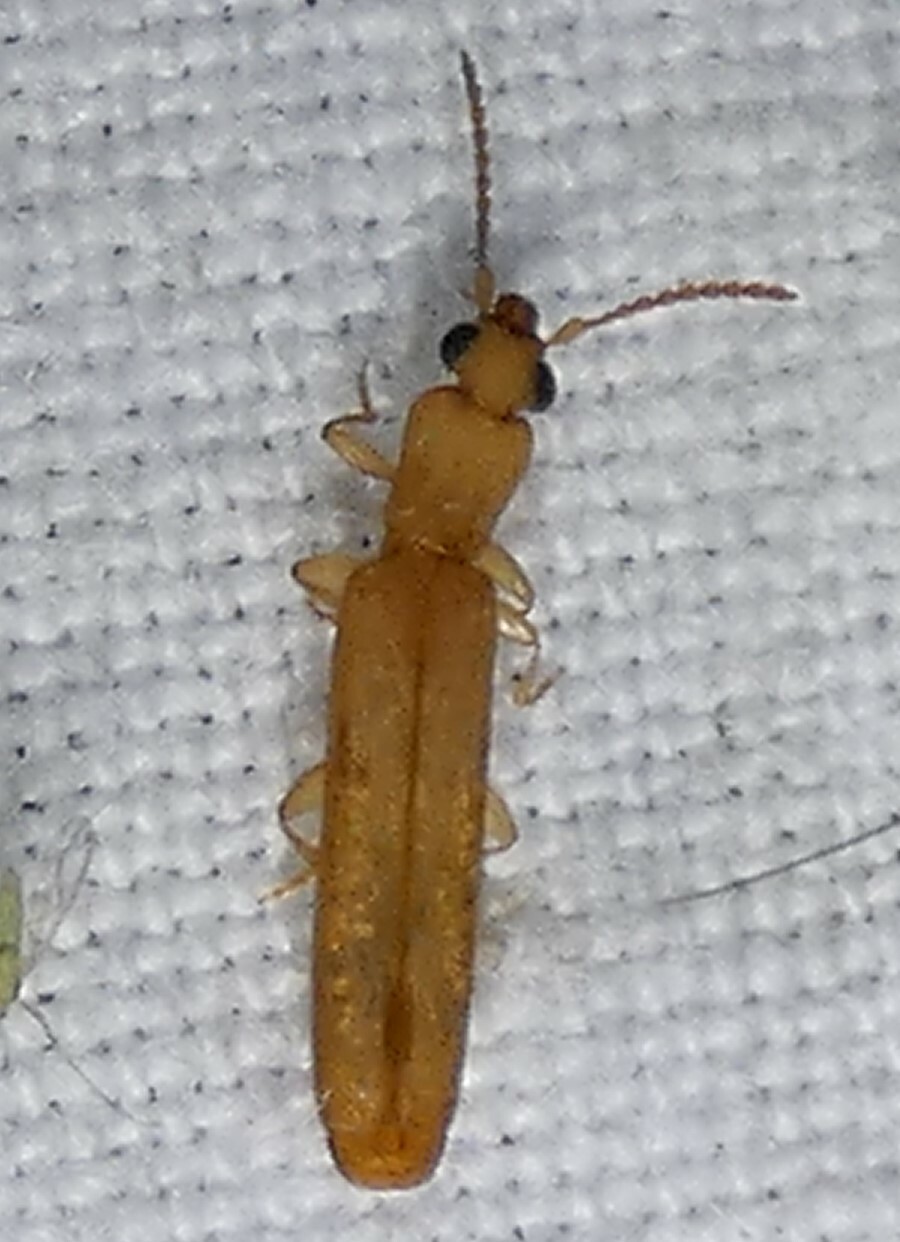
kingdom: Animalia
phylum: Arthropoda
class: Insecta
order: Coleoptera
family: Mycteridae
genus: Hemipeplus
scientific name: Hemipeplus marginipennis
